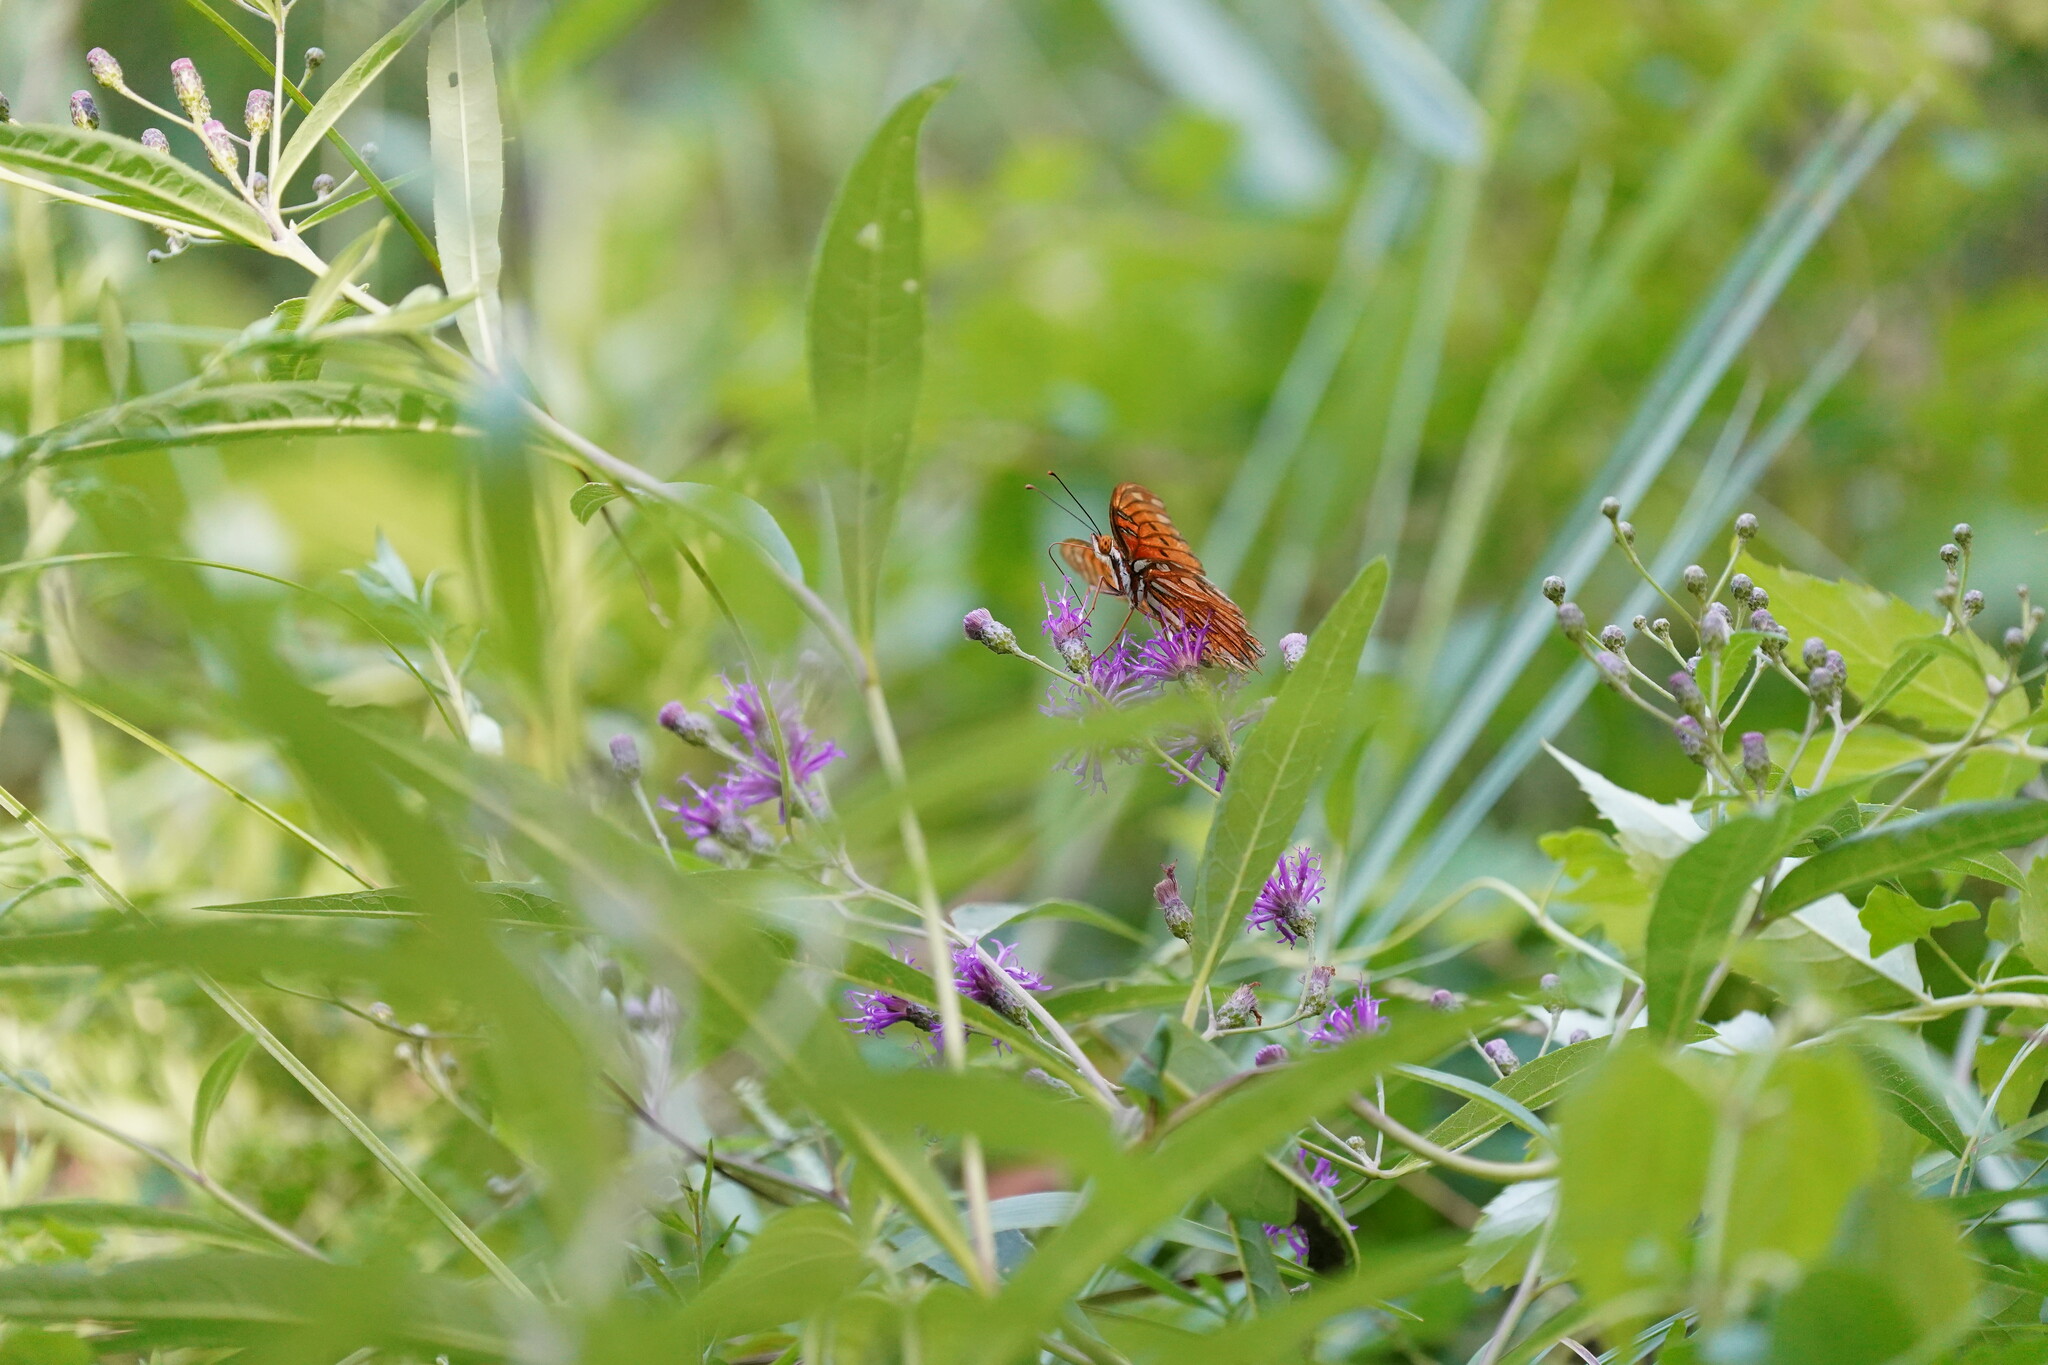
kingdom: Animalia
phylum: Arthropoda
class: Insecta
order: Lepidoptera
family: Nymphalidae
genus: Dione
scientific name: Dione vanillae
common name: Gulf fritillary
